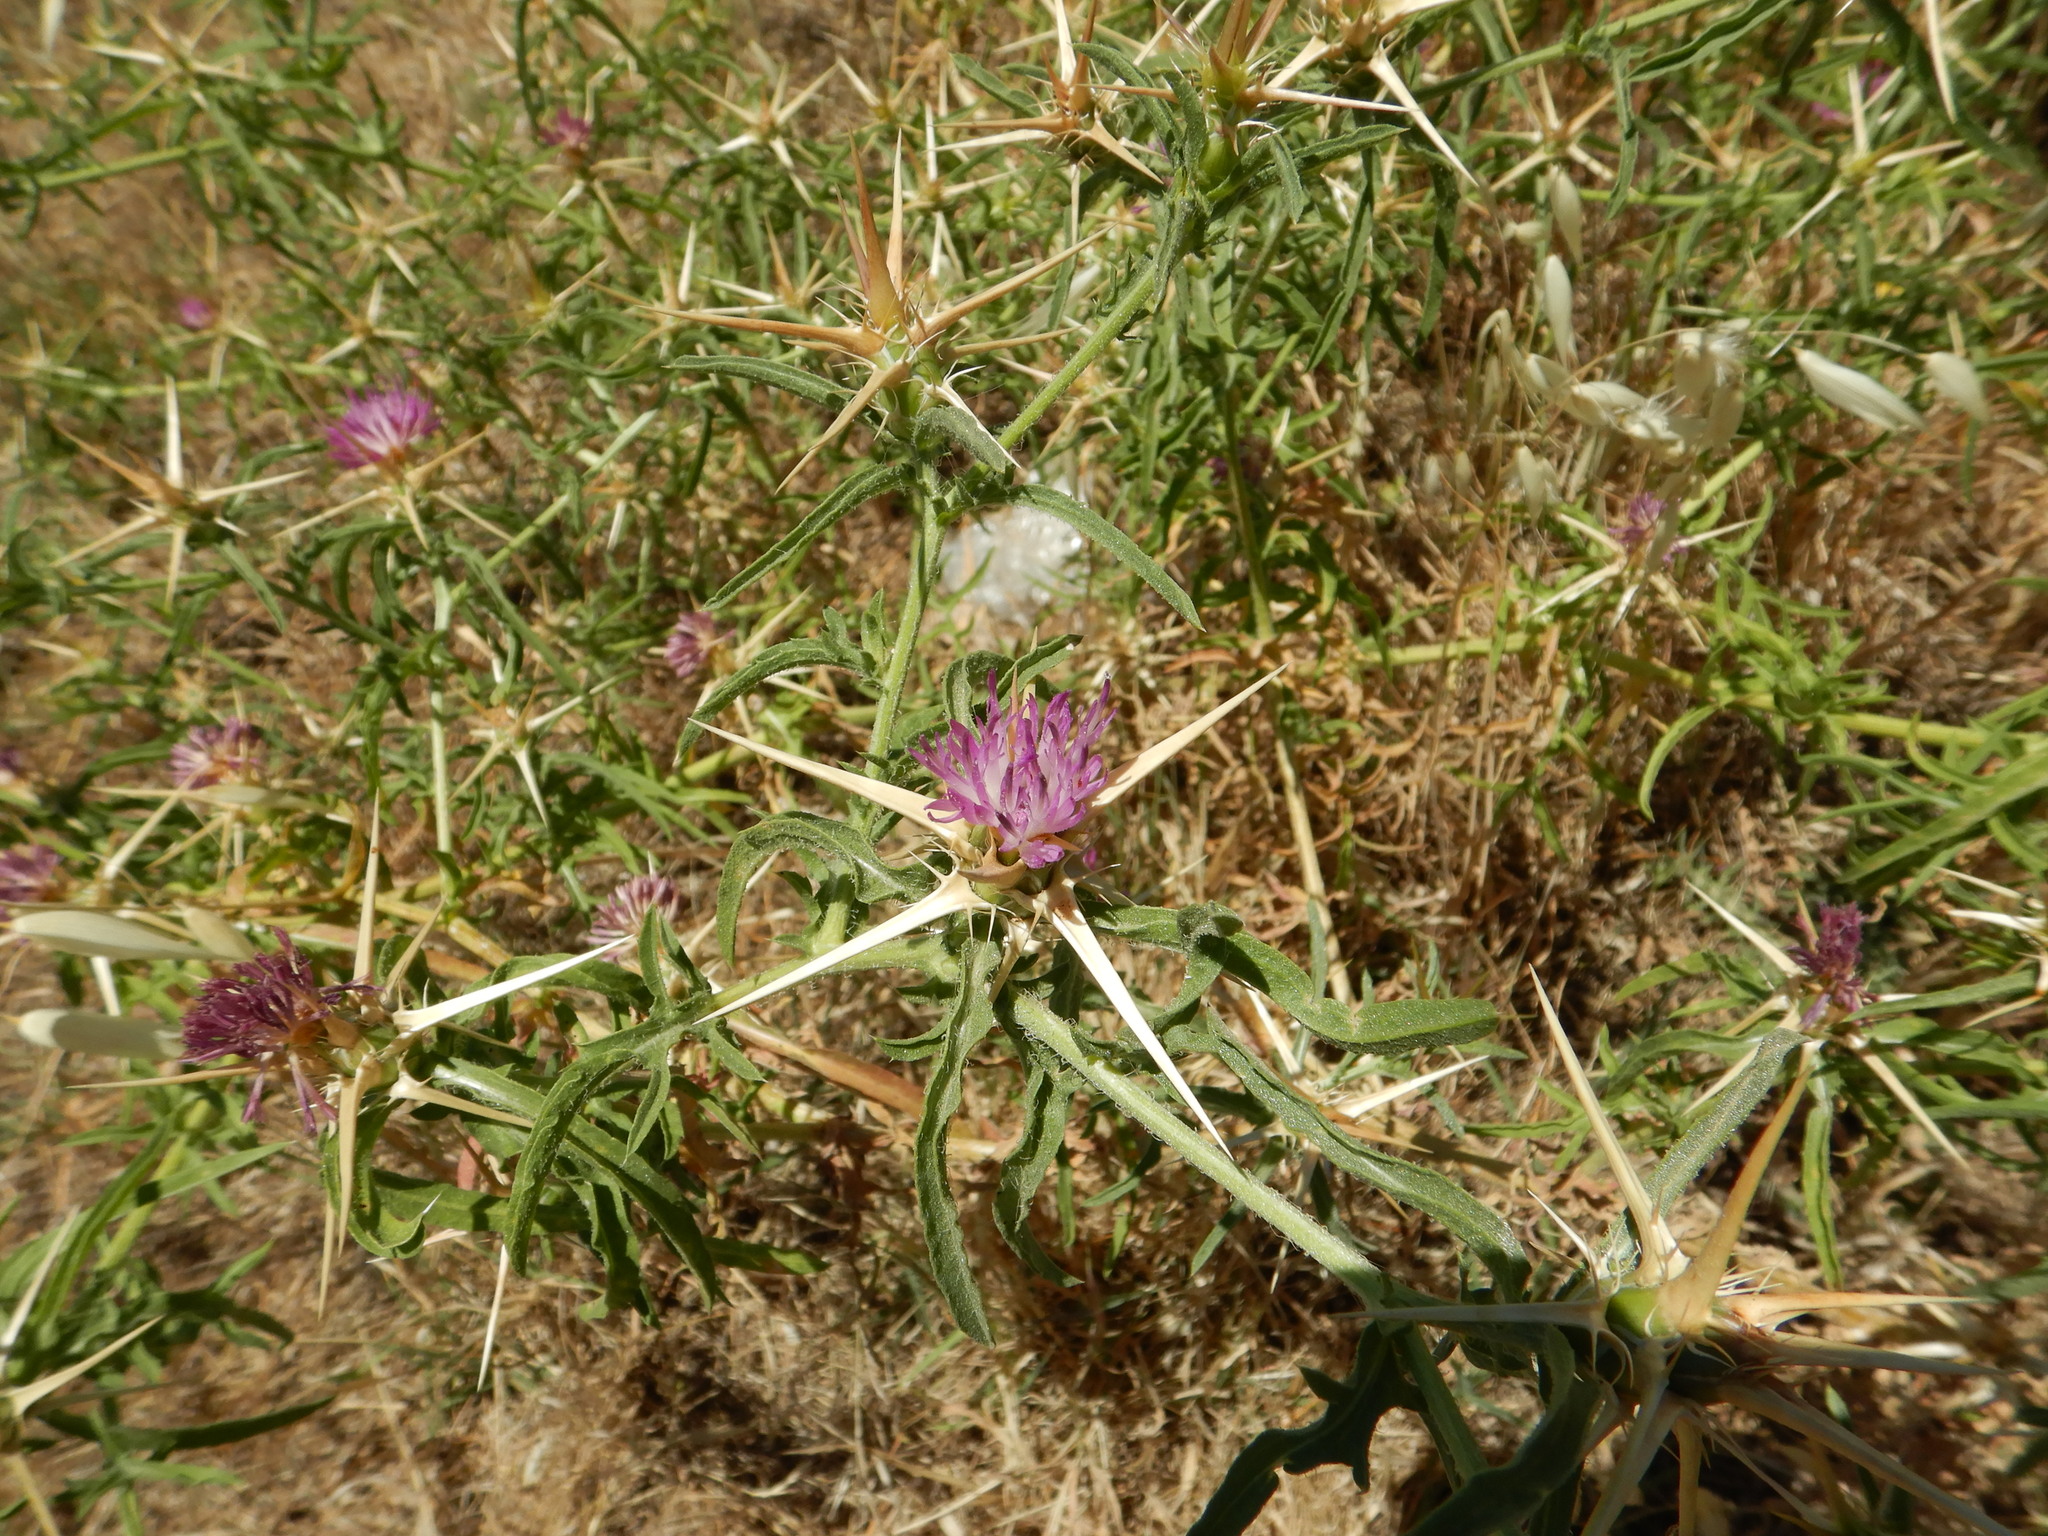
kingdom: Plantae
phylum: Tracheophyta
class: Magnoliopsida
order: Asterales
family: Asteraceae
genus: Centaurea
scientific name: Centaurea calcitrapa
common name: Red star-thistle
